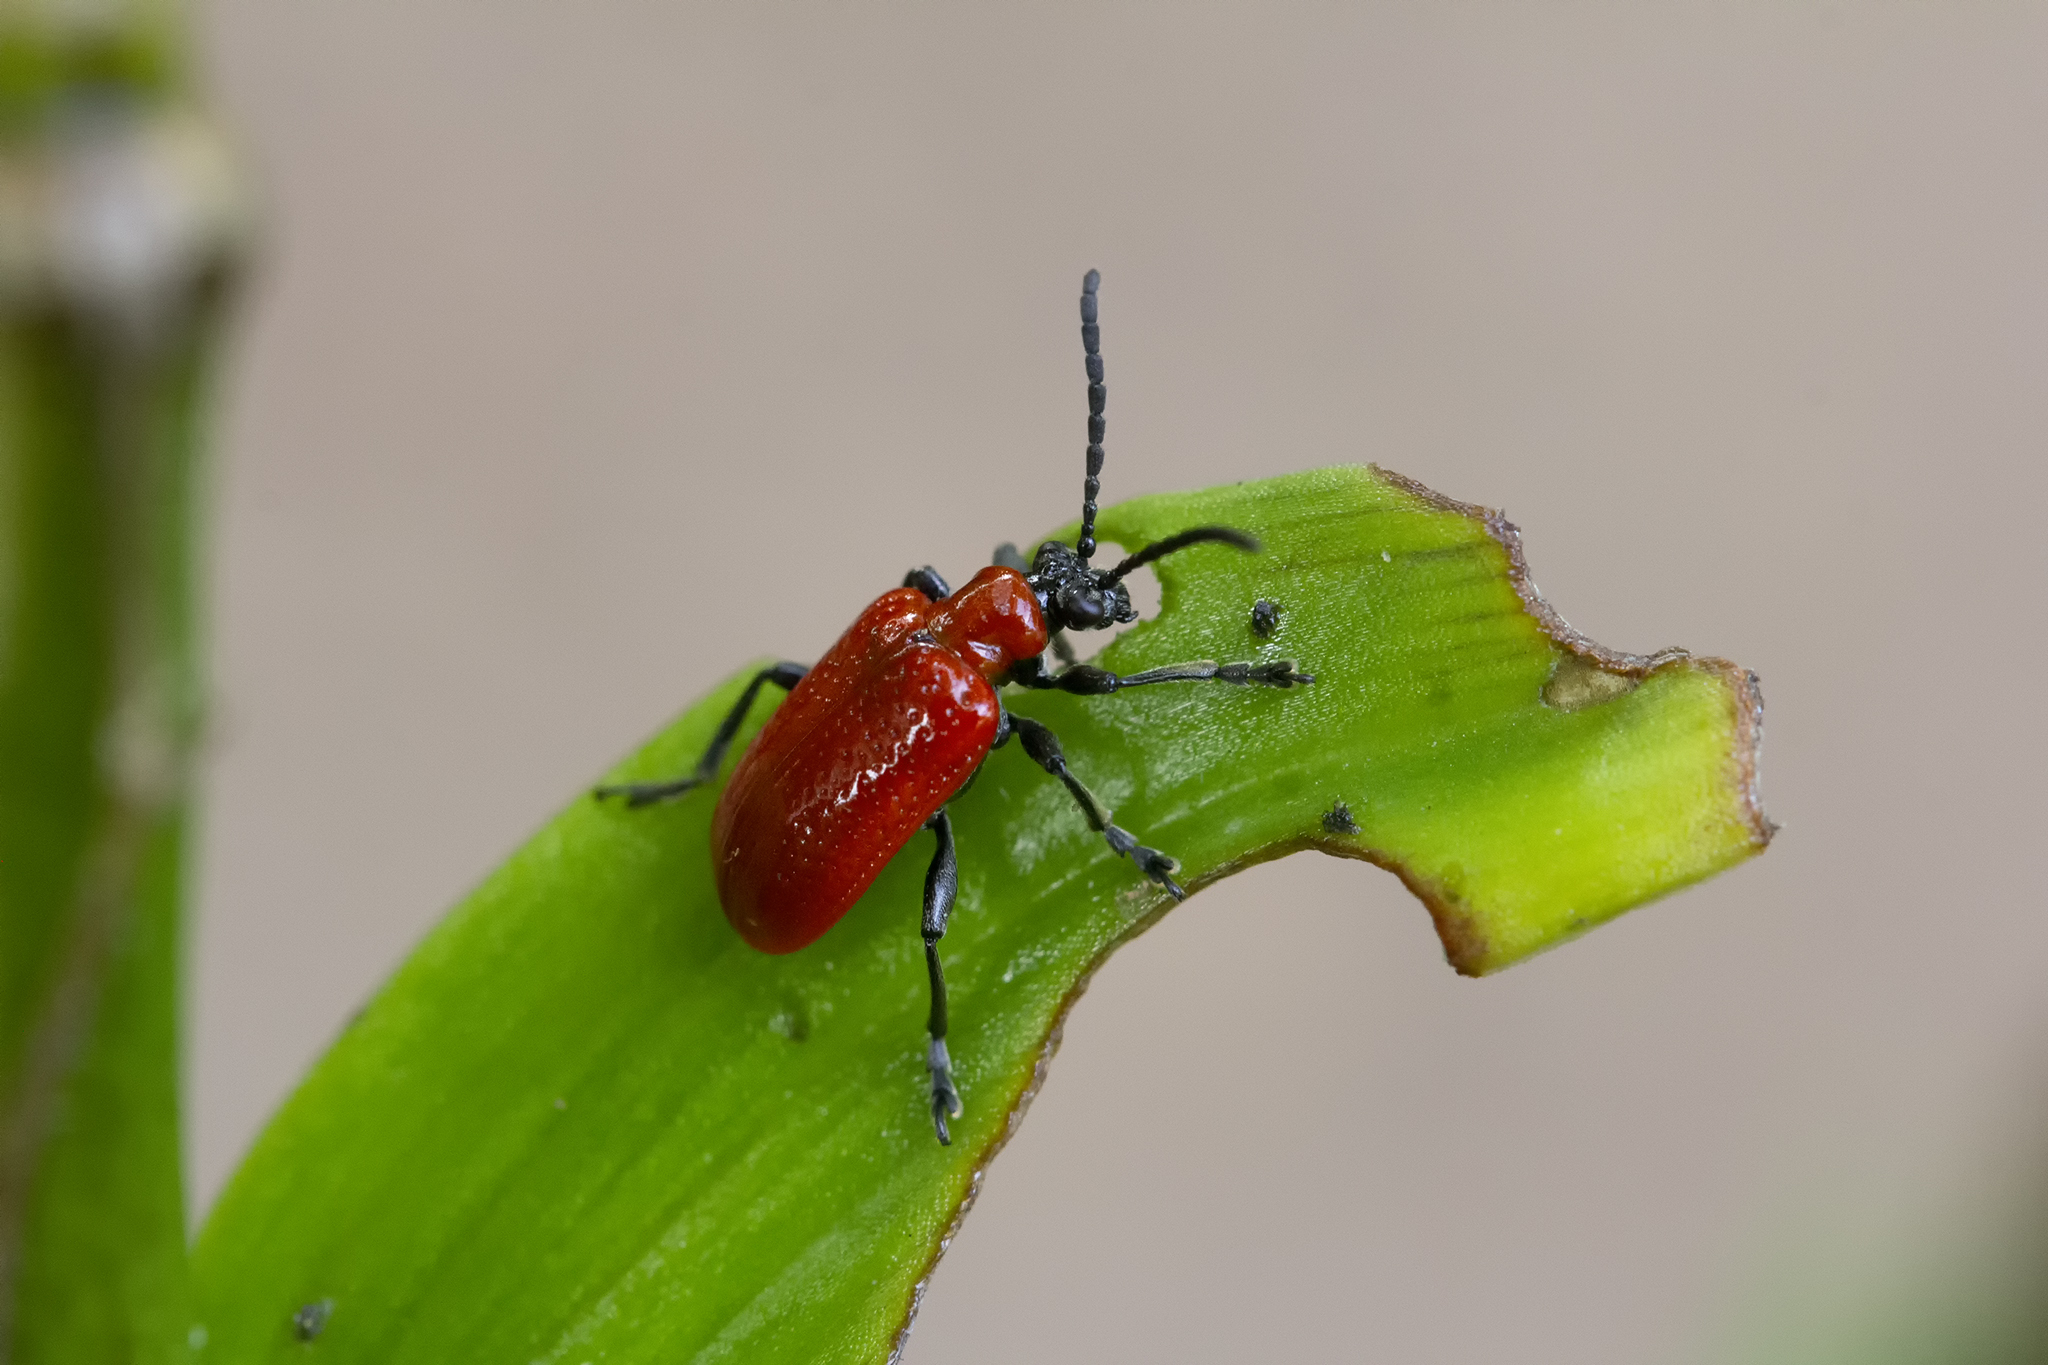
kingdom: Animalia
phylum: Arthropoda
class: Insecta
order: Coleoptera
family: Chrysomelidae
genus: Lilioceris
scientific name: Lilioceris lilii
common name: Lily beetle
